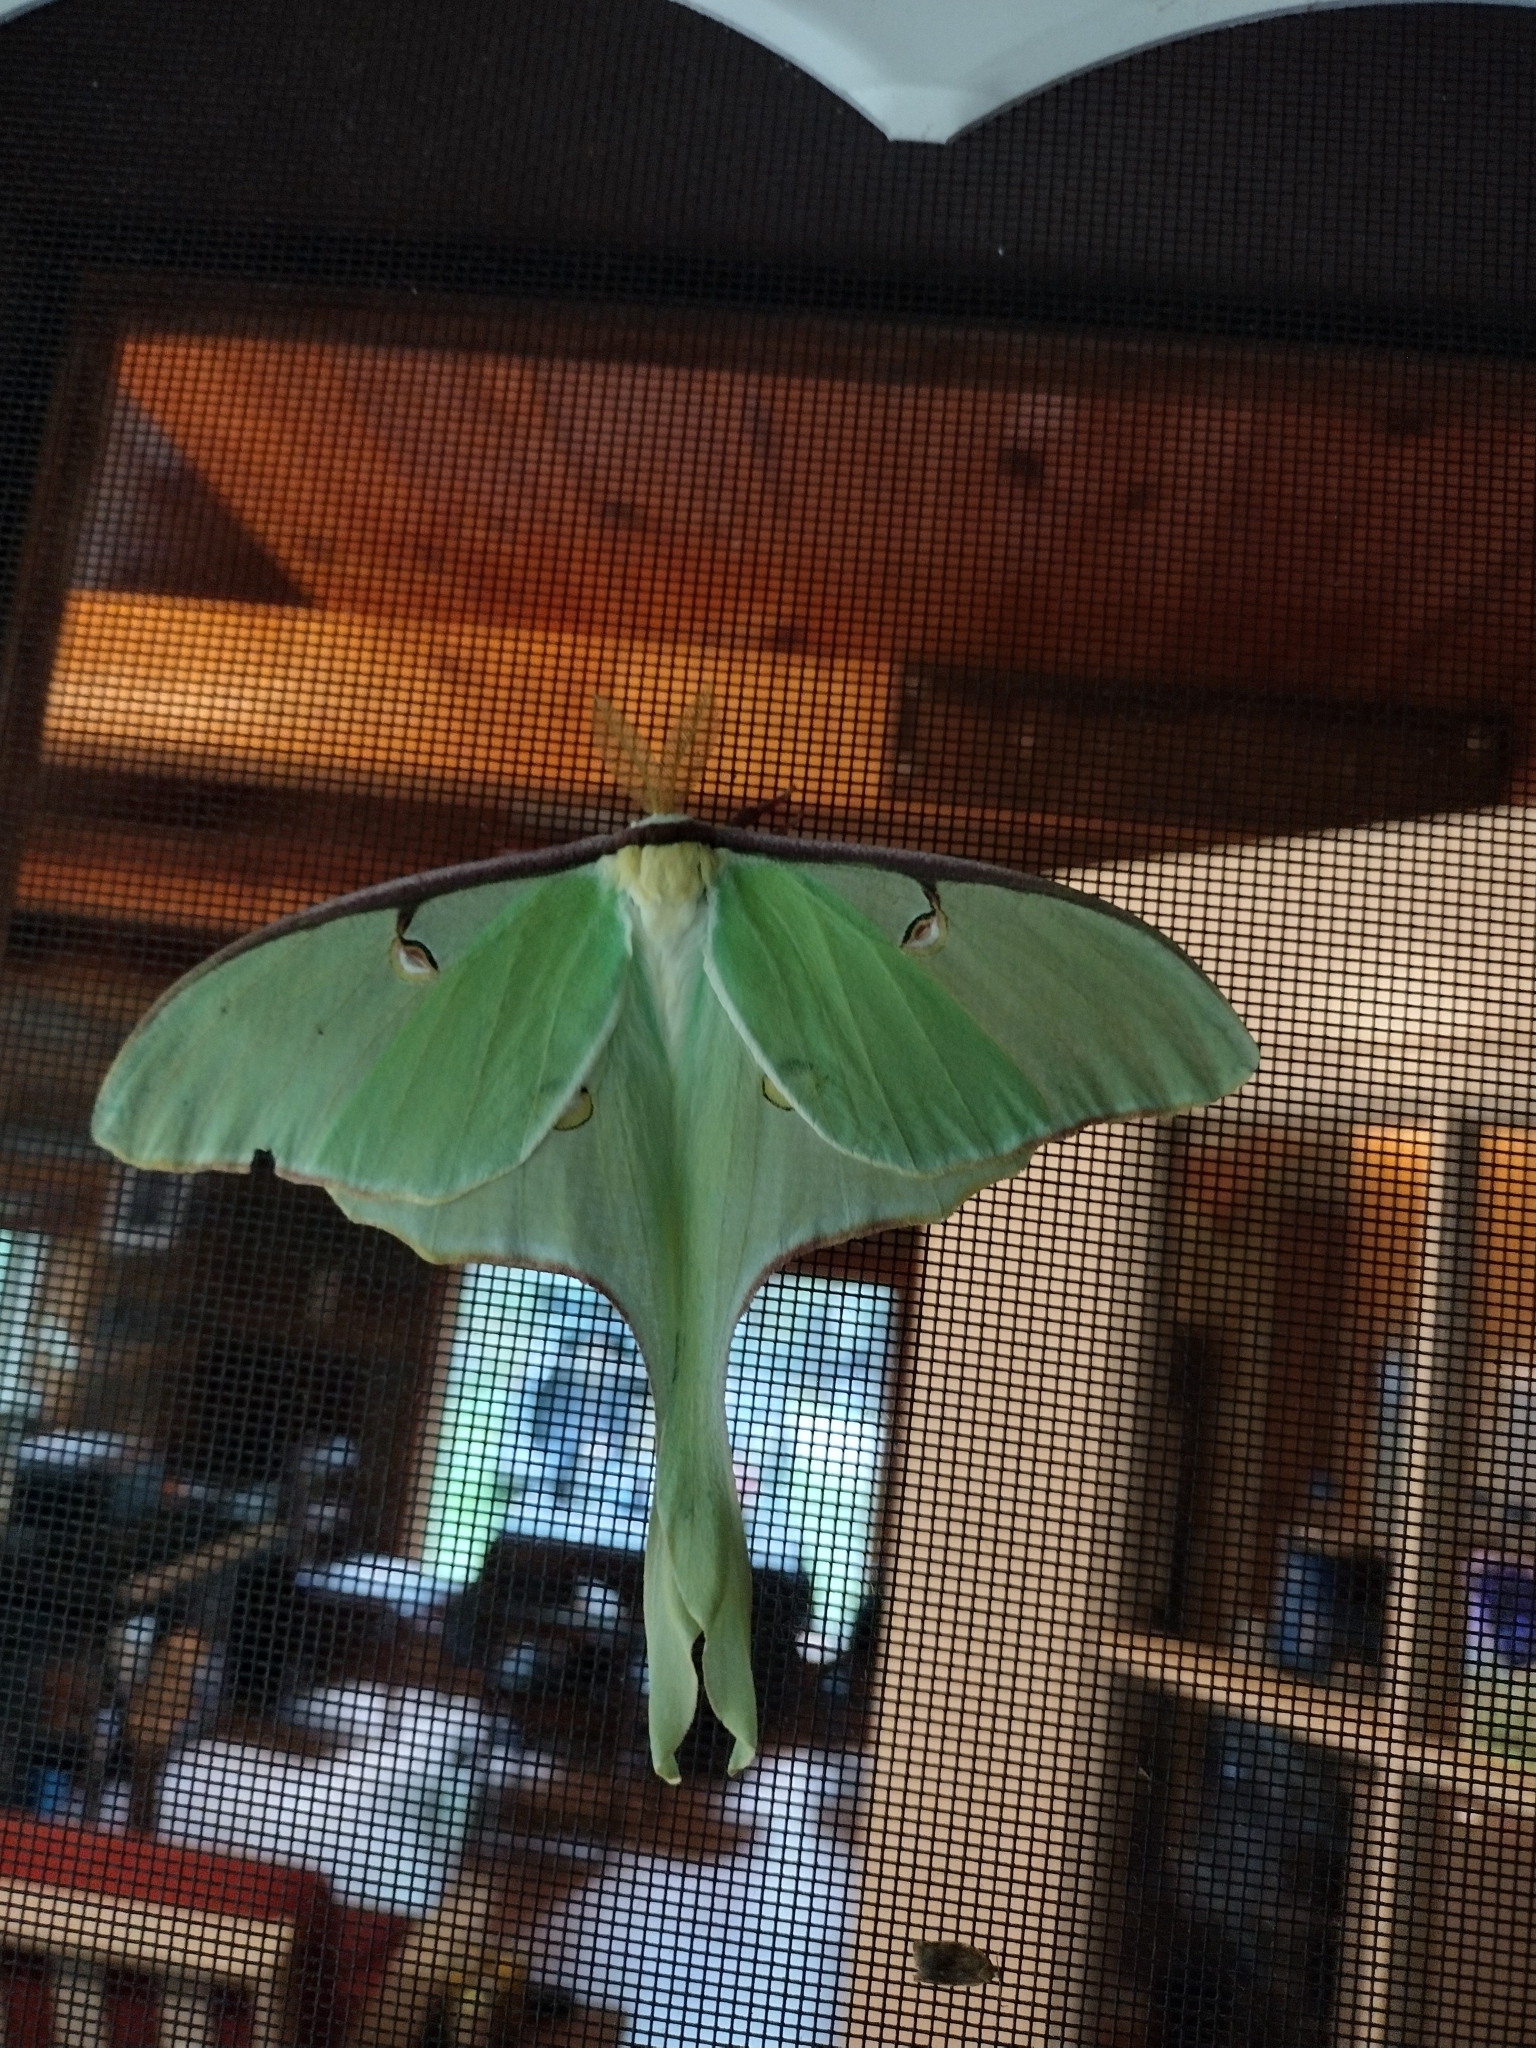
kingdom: Animalia
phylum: Arthropoda
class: Insecta
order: Lepidoptera
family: Saturniidae
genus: Actias
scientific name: Actias luna
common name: Luna moth
